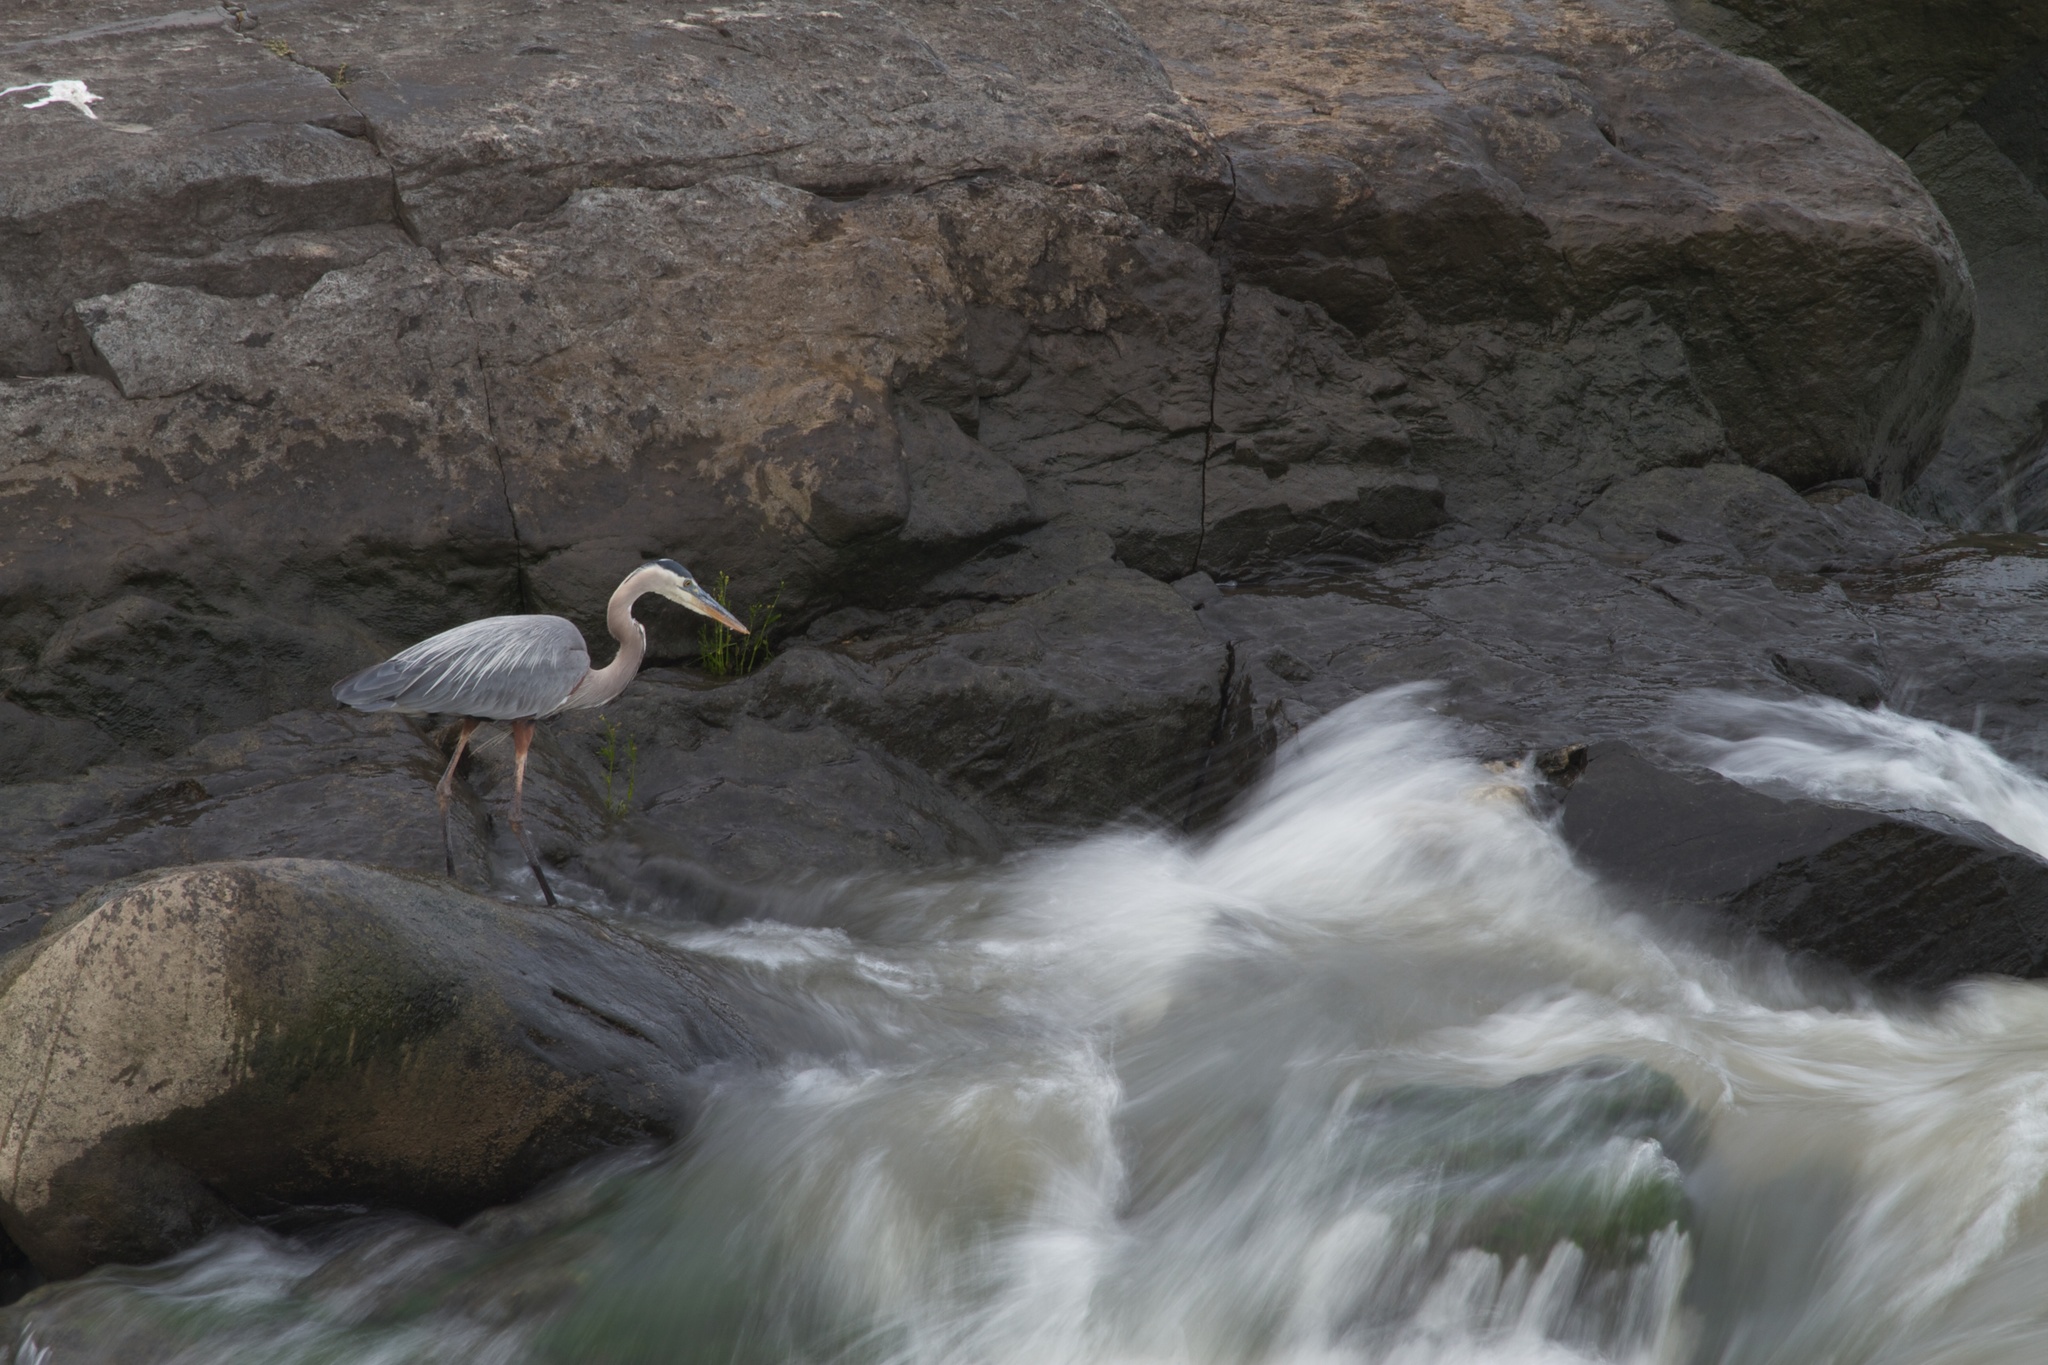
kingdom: Animalia
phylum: Chordata
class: Aves
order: Pelecaniformes
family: Ardeidae
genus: Ardea
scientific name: Ardea herodias
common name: Great blue heron
